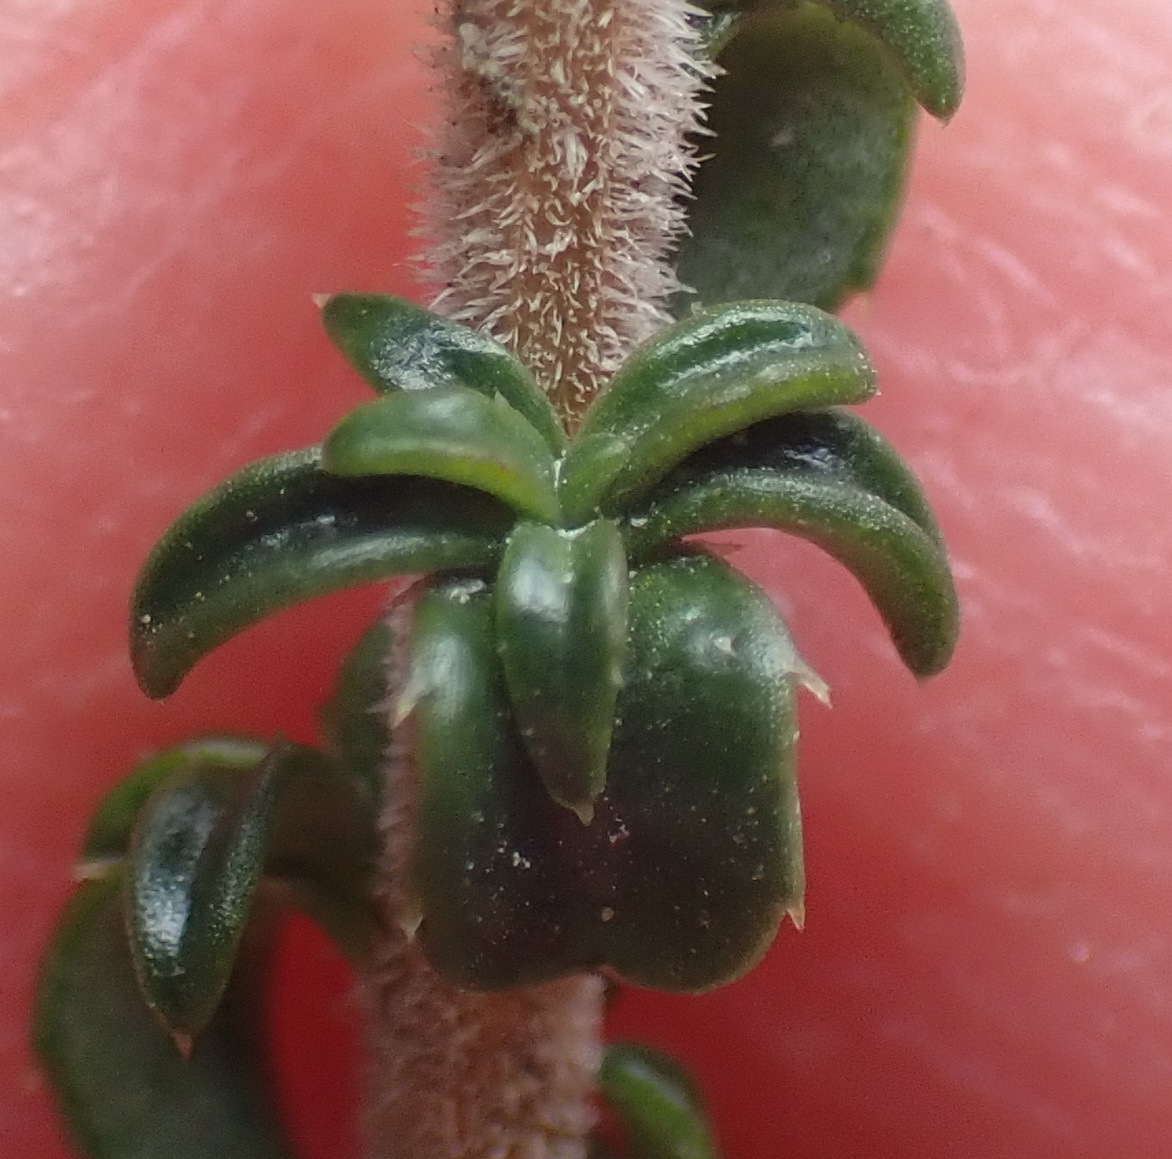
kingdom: Plantae
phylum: Tracheophyta
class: Magnoliopsida
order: Asterales
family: Campanulaceae
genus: Wahlenbergia
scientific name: Wahlenbergia desmantha
